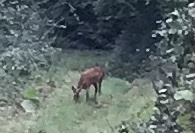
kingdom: Animalia
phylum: Chordata
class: Mammalia
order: Artiodactyla
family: Cervidae
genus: Capreolus
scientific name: Capreolus capreolus
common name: Western roe deer
